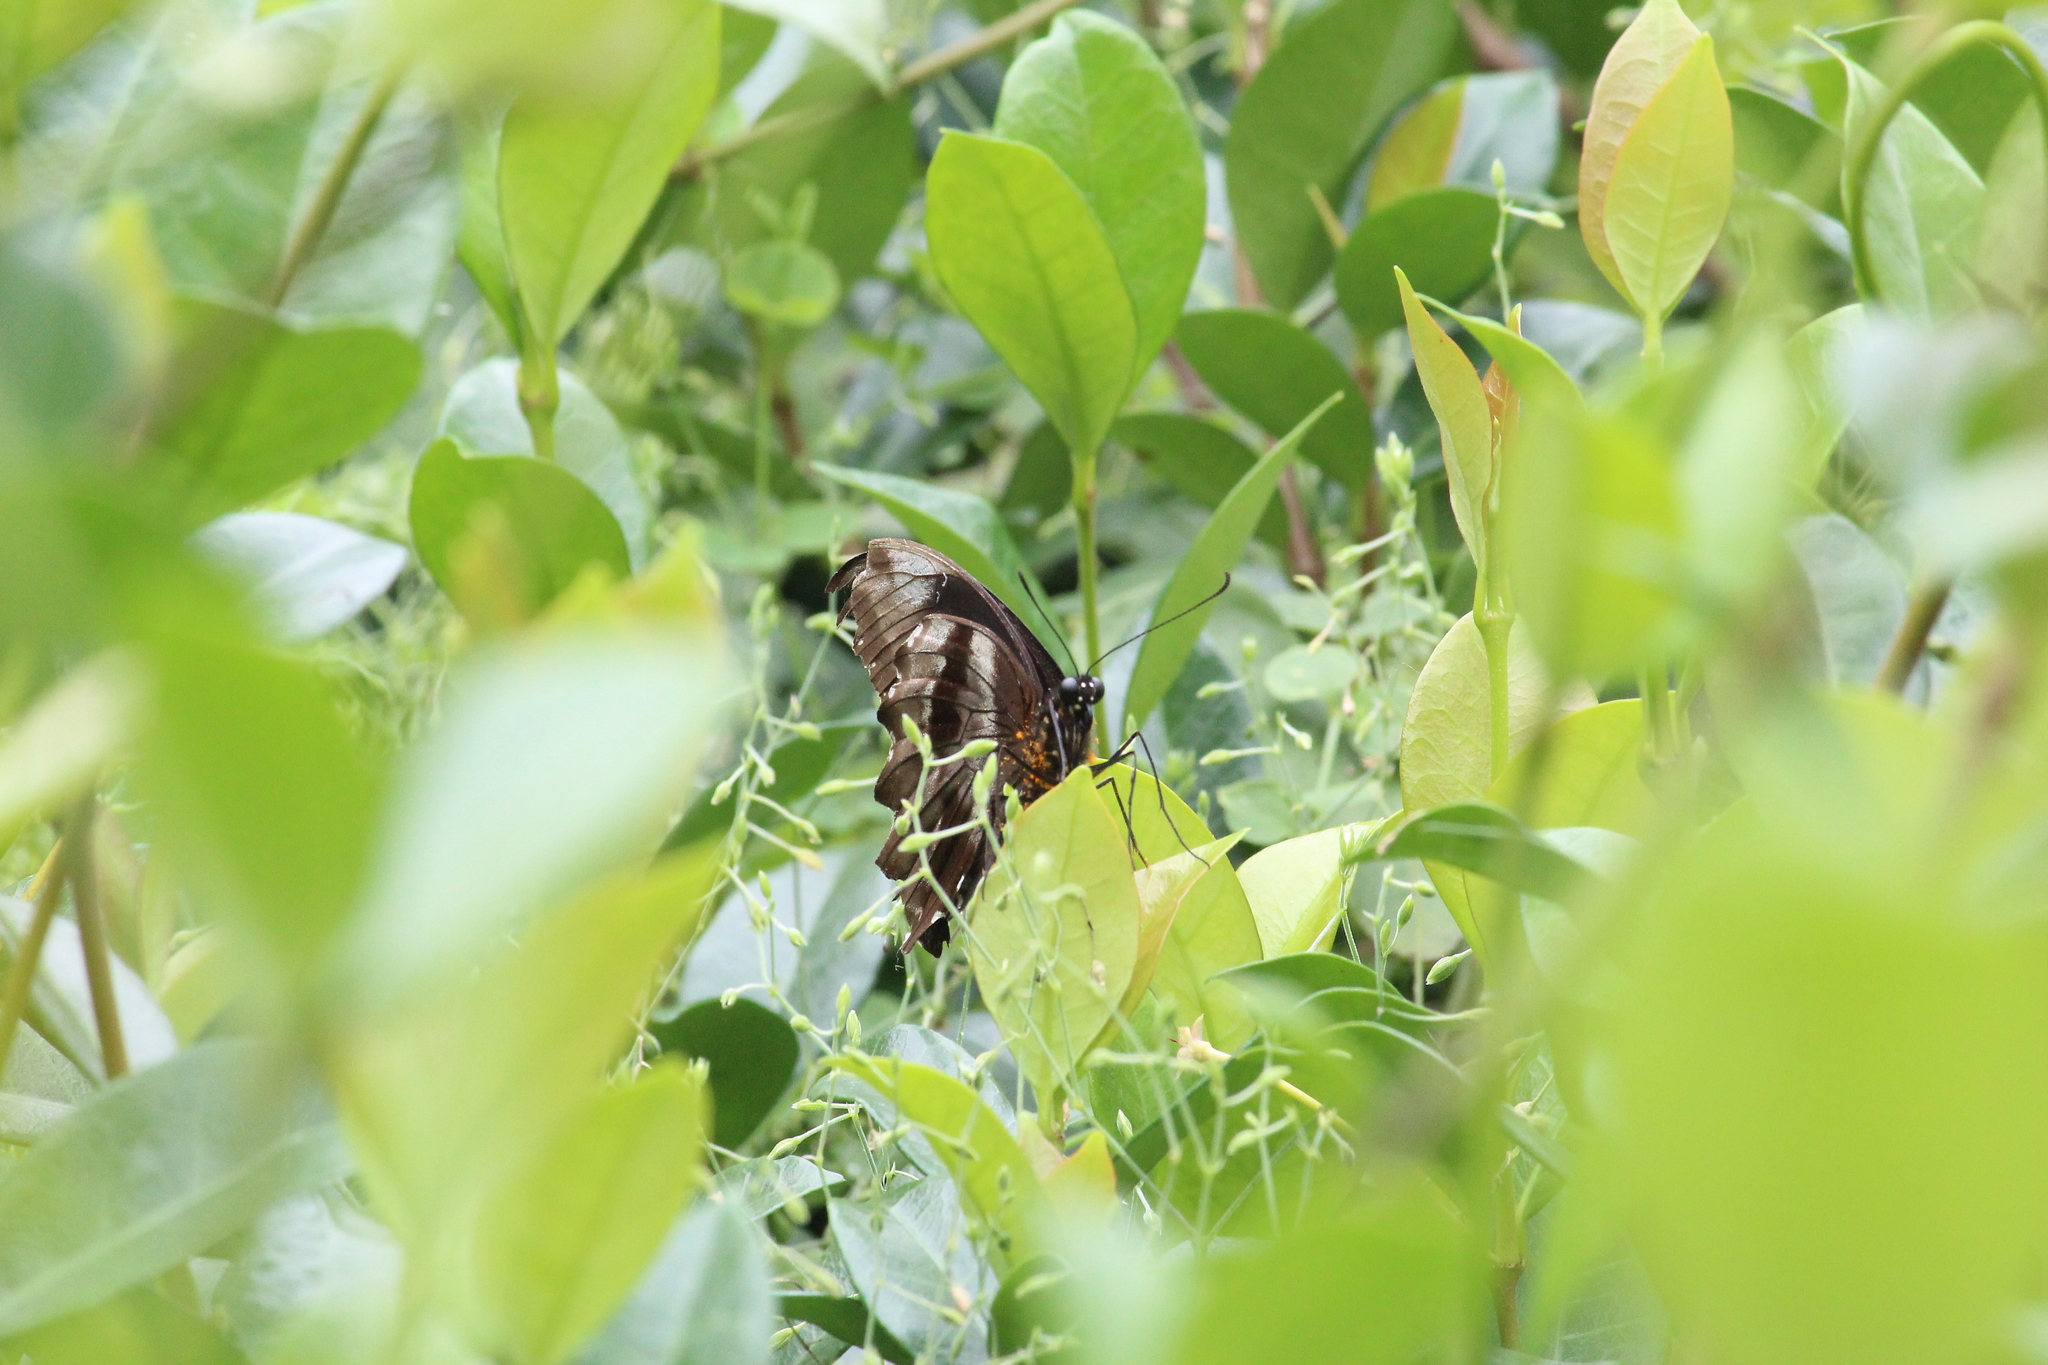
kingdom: Animalia
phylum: Arthropoda
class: Insecta
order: Lepidoptera
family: Papilionidae
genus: Papilio
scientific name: Papilio nireus
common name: Greenbanded swallowtail
